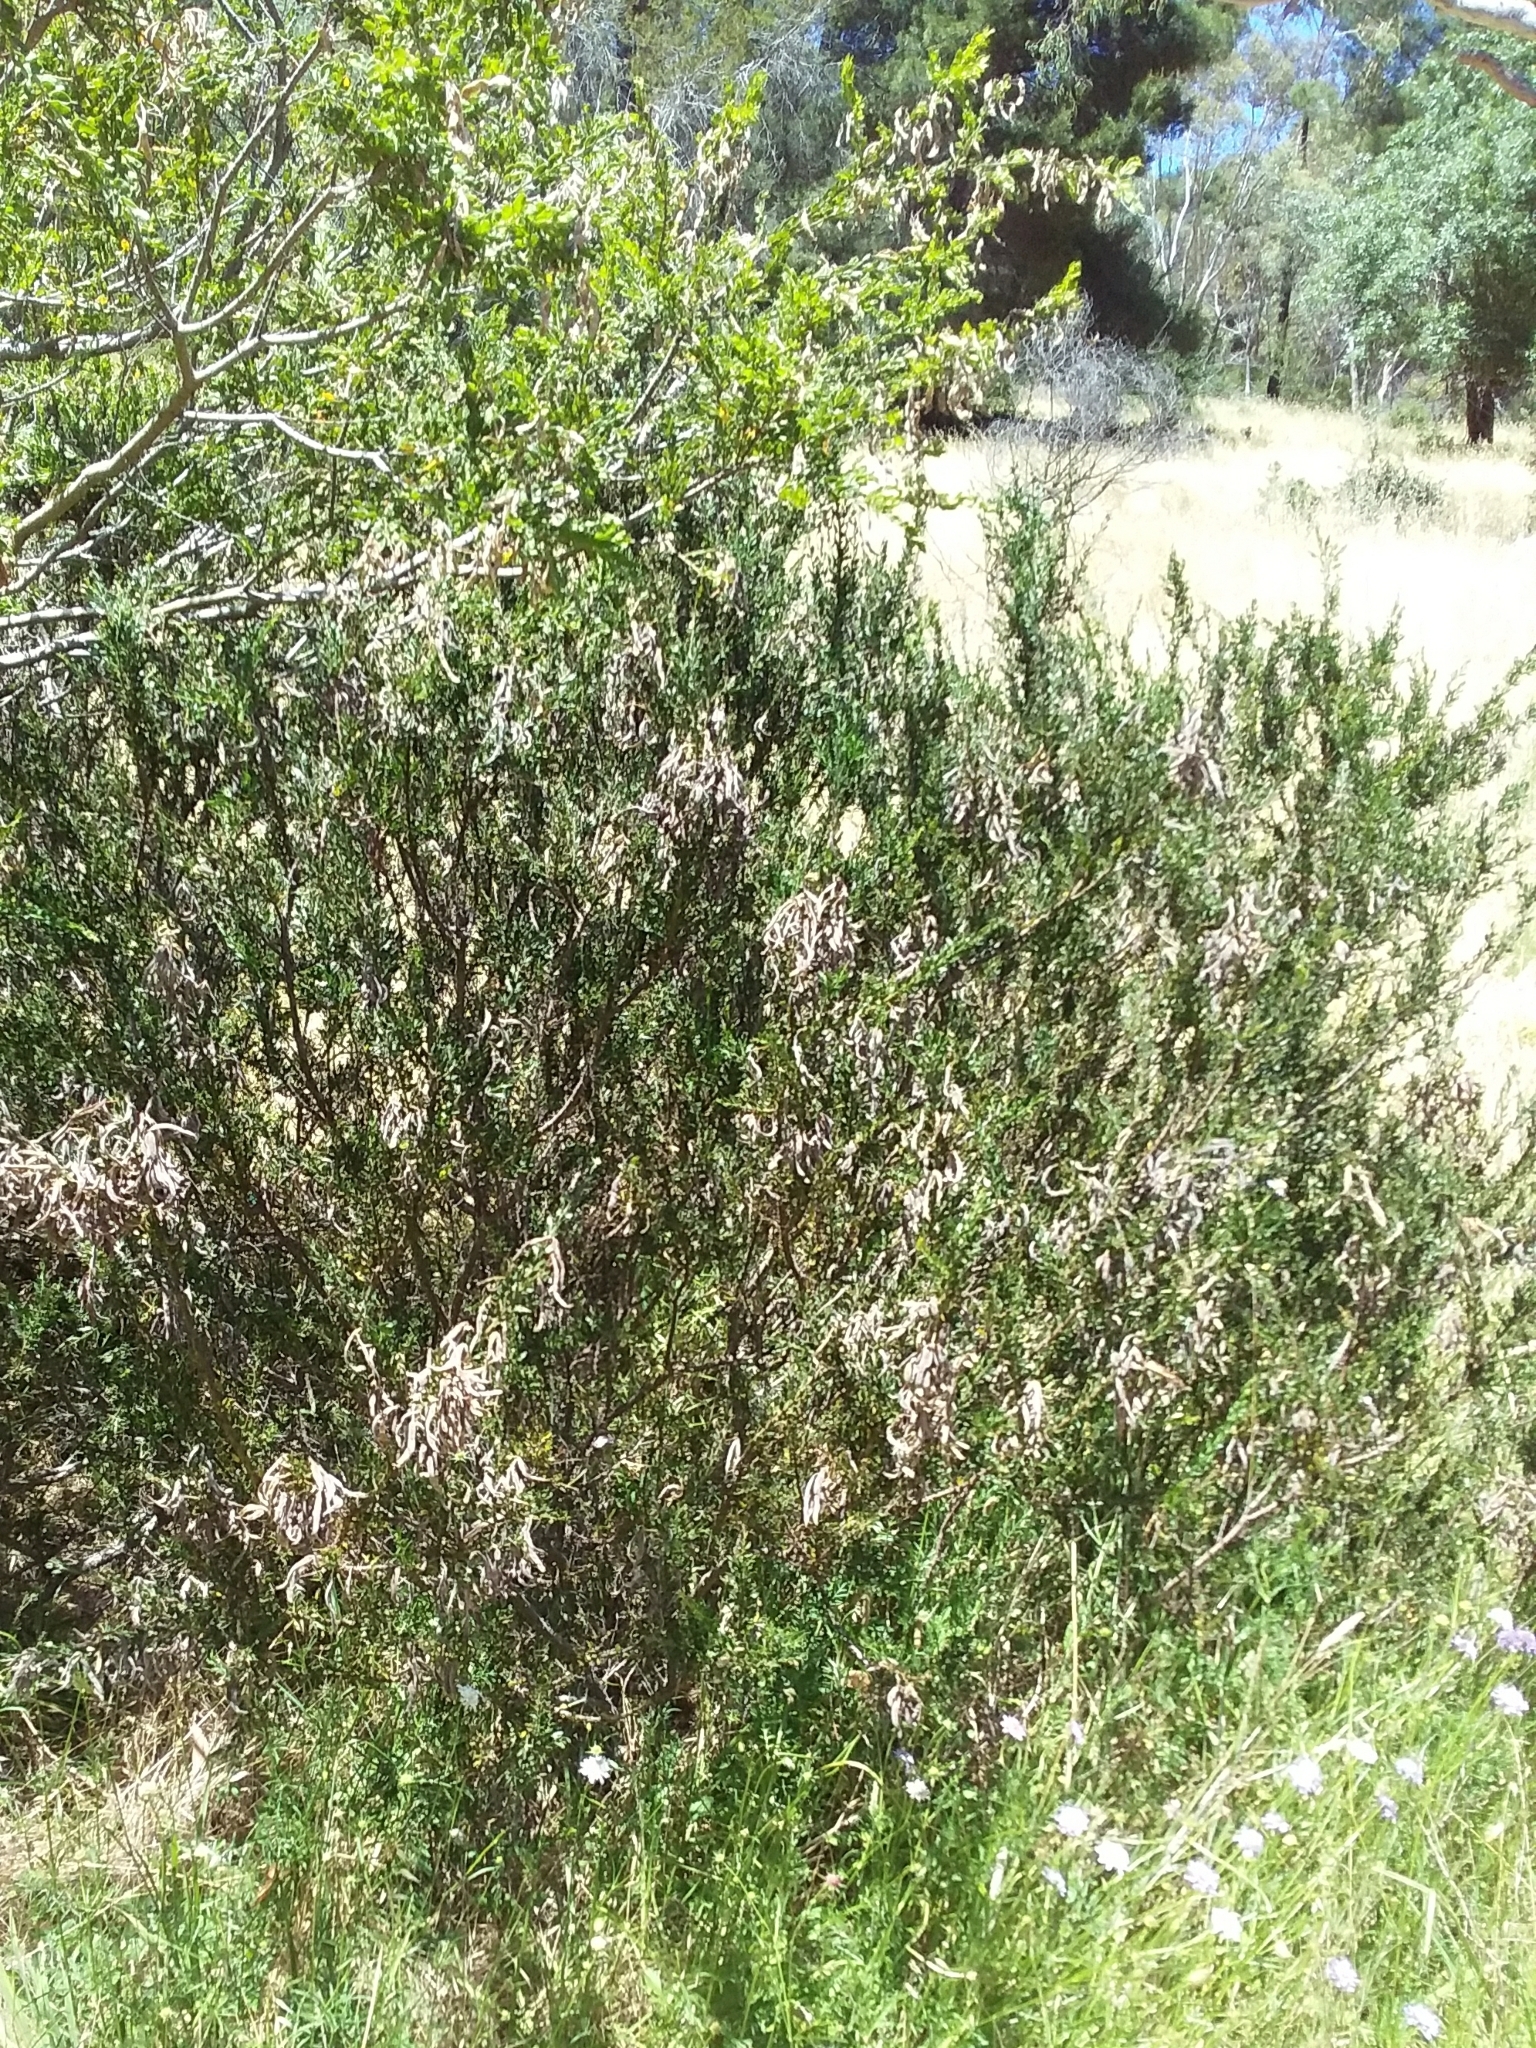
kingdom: Plantae
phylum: Tracheophyta
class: Magnoliopsida
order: Fabales
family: Fabaceae
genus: Acacia
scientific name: Acacia paradoxa
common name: Paradox acacia
